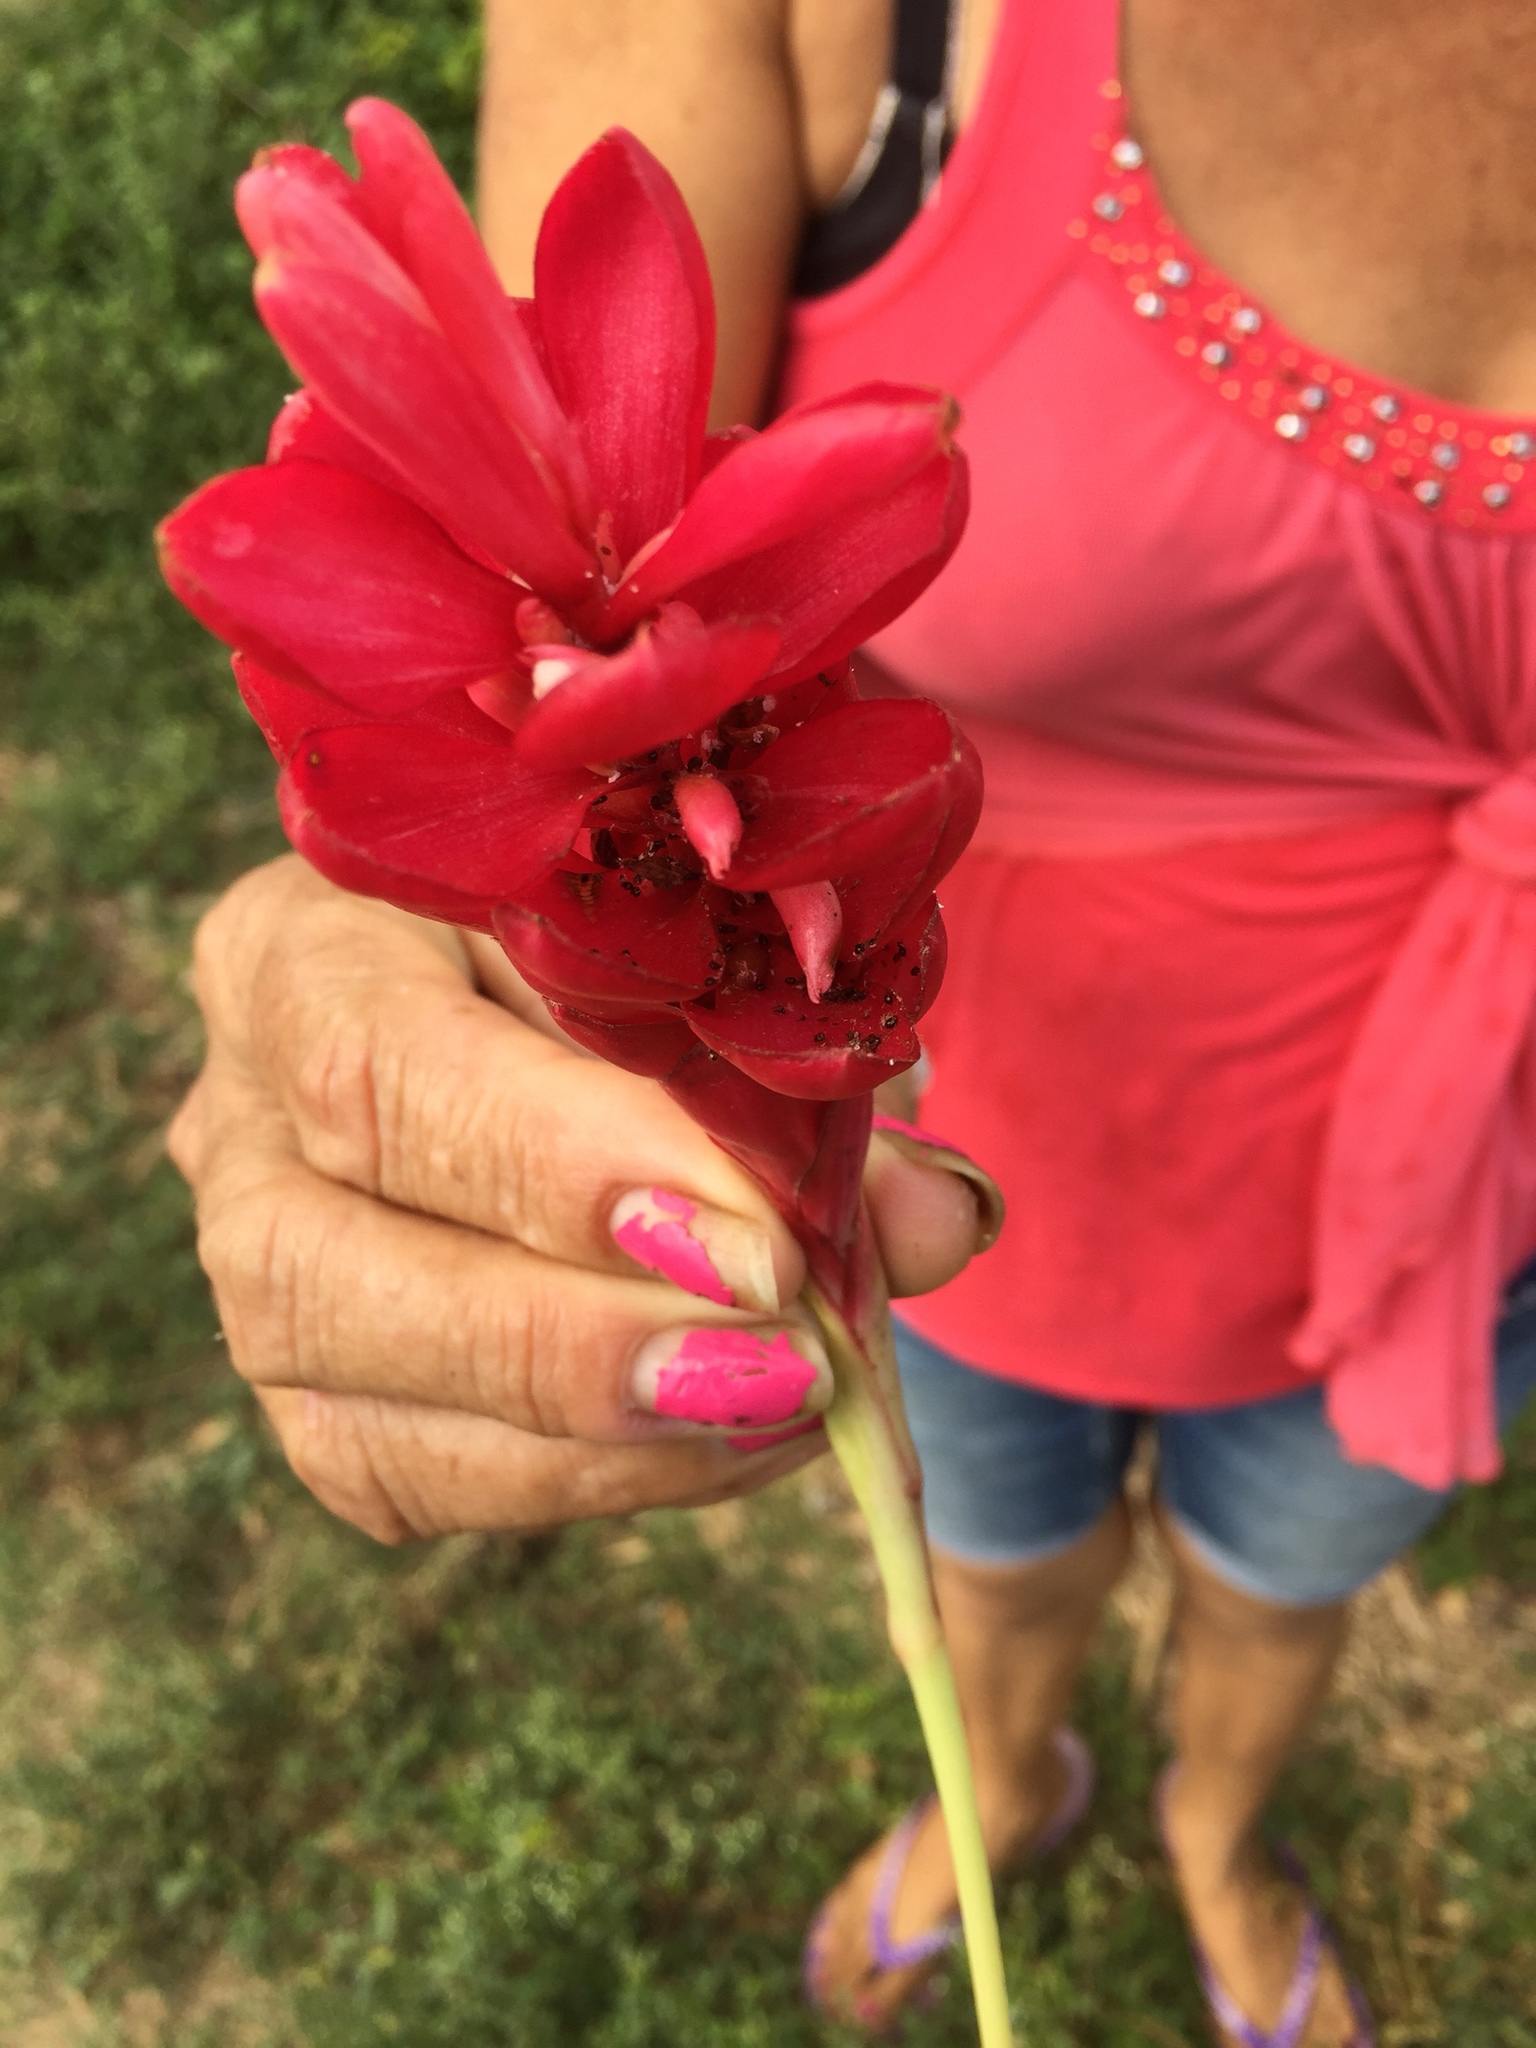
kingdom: Plantae
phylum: Tracheophyta
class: Liliopsida
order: Zingiberales
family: Zingiberaceae
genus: Alpinia
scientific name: Alpinia purpurata
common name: Red ginger
